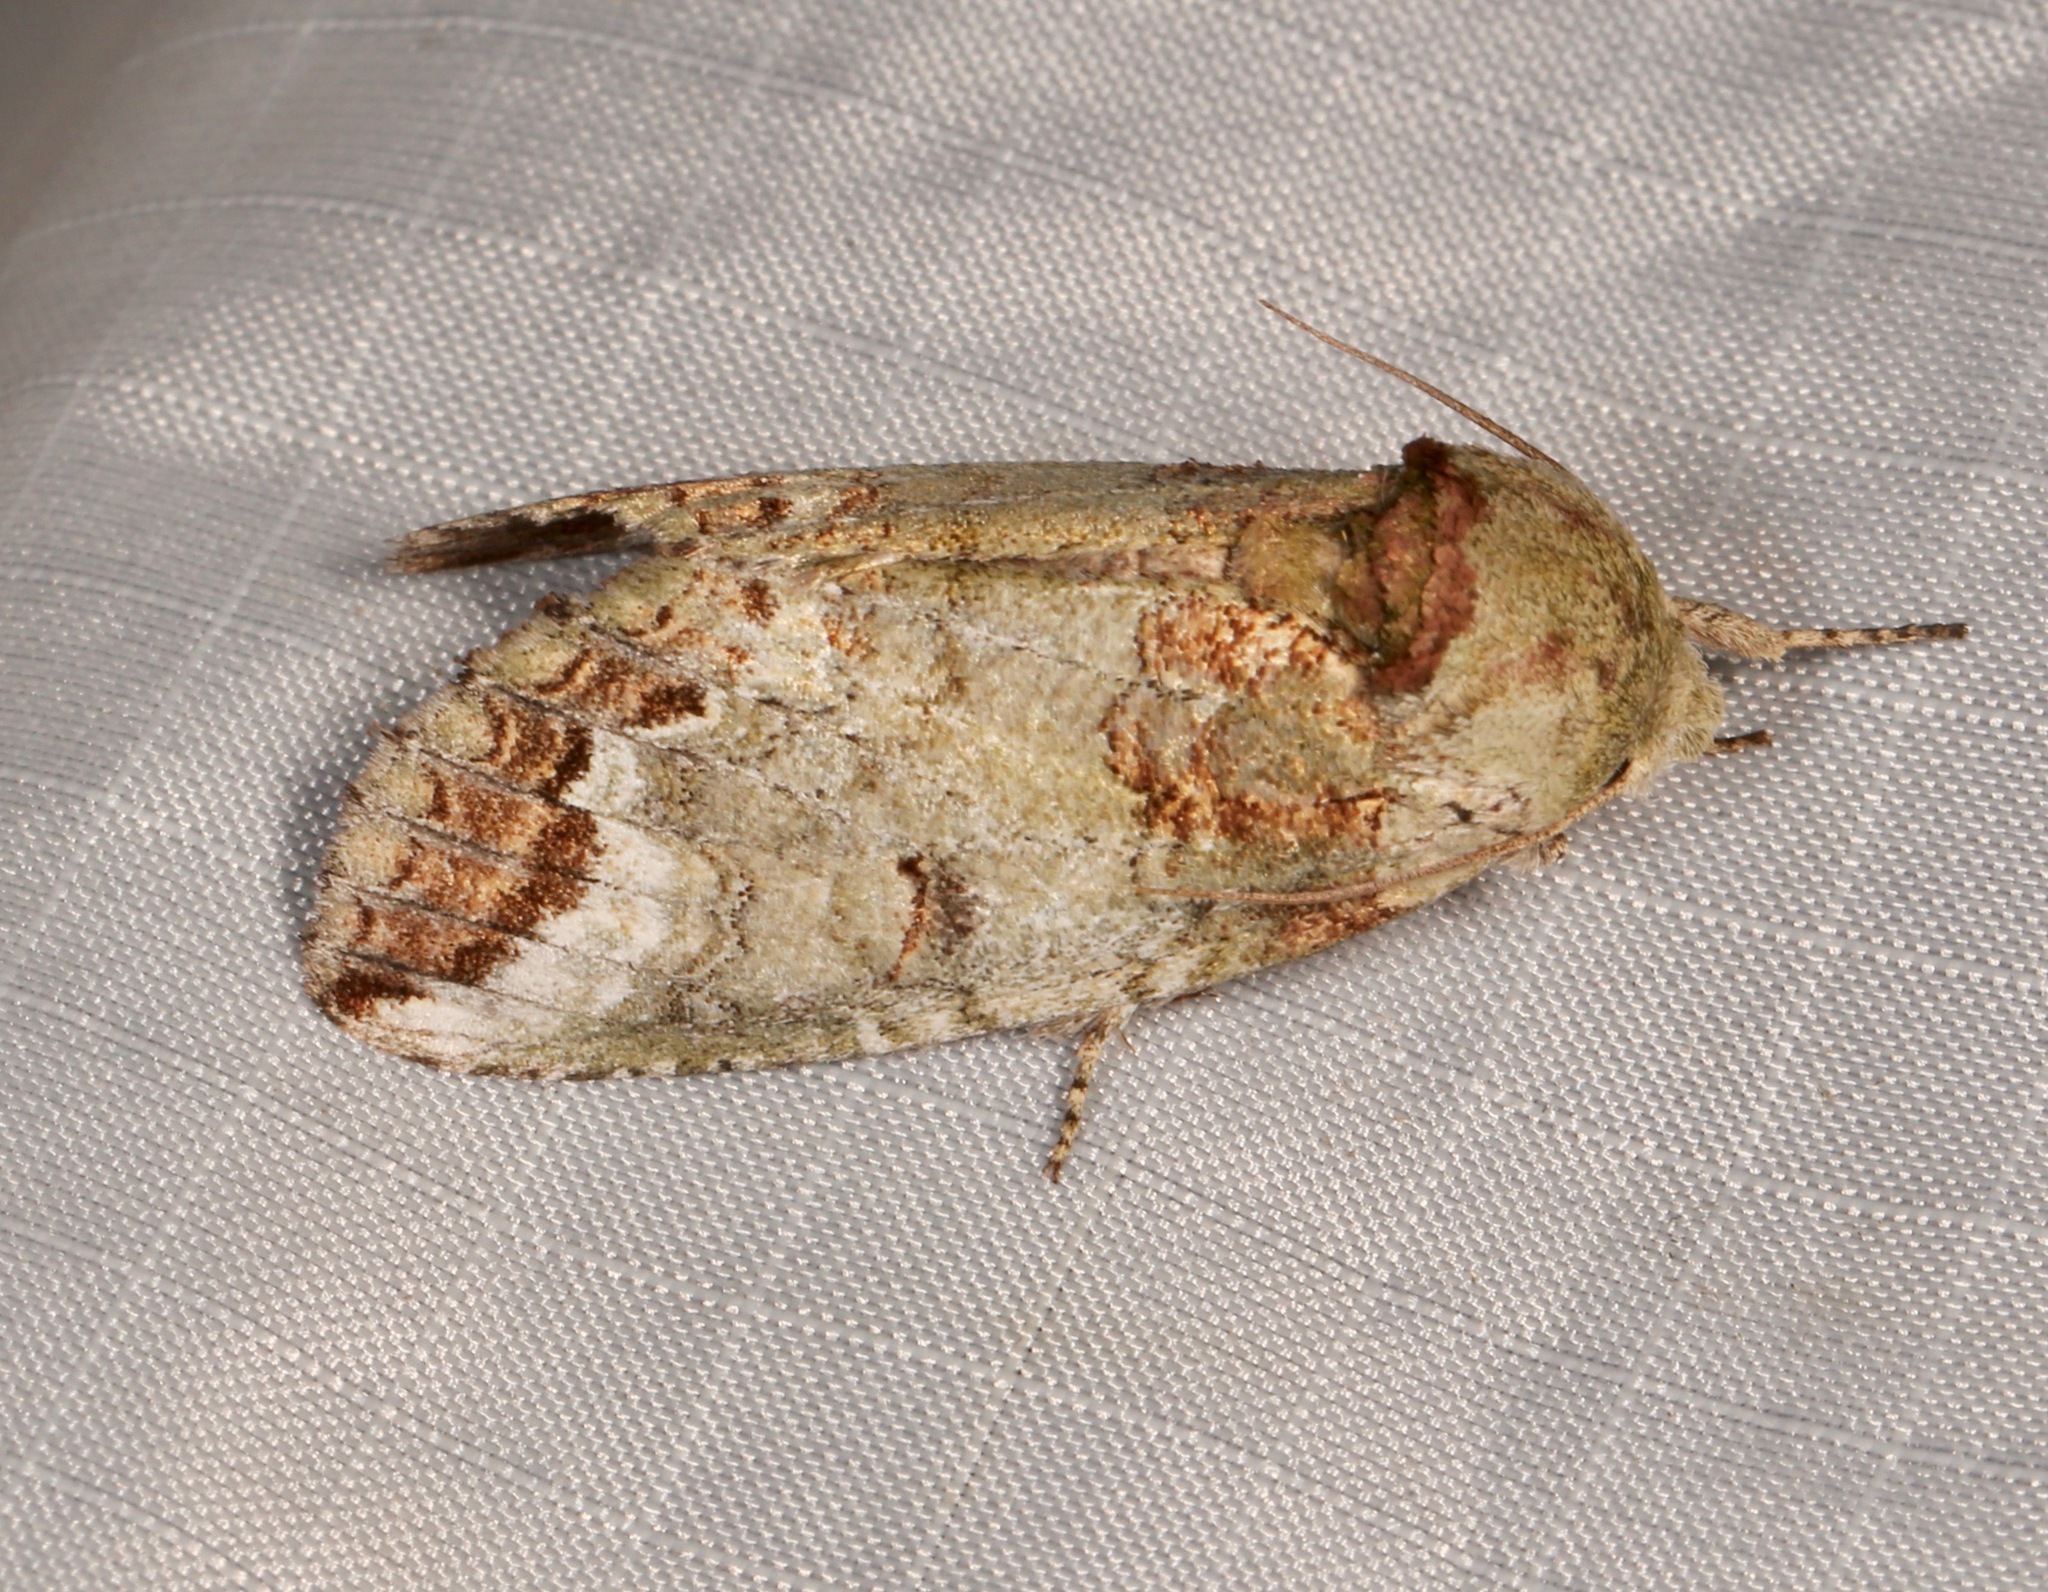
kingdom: Animalia
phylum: Arthropoda
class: Insecta
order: Lepidoptera
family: Notodontidae
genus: Heterocampa
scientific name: Heterocampa astarte
